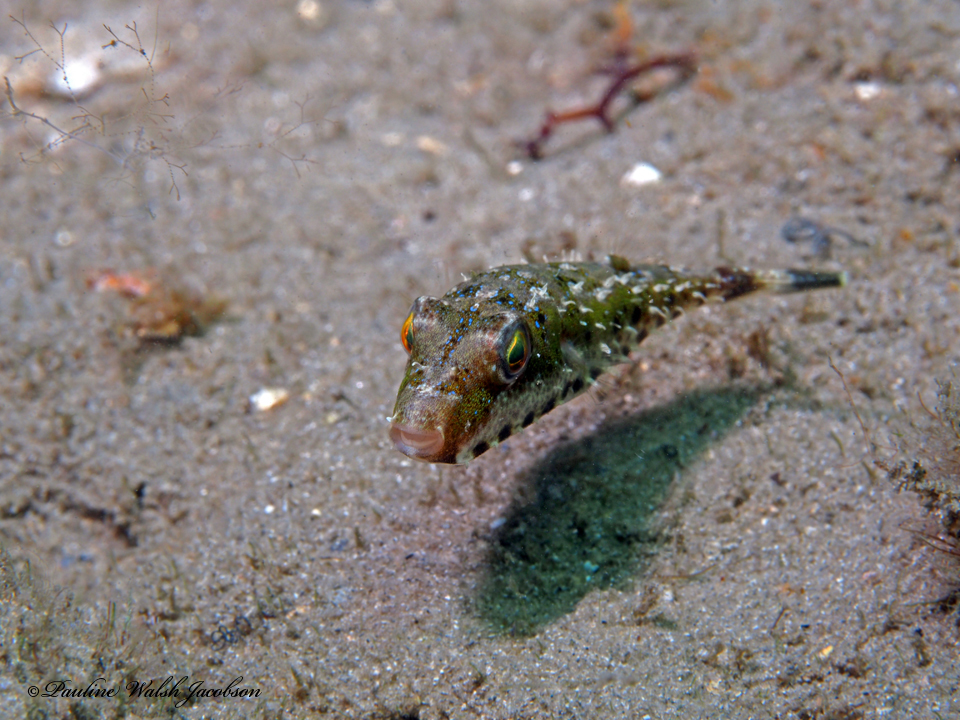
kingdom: Animalia
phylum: Chordata
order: Tetraodontiformes
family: Tetraodontidae
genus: Sphoeroides
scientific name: Sphoeroides spengleri
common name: Bandtail puffer
